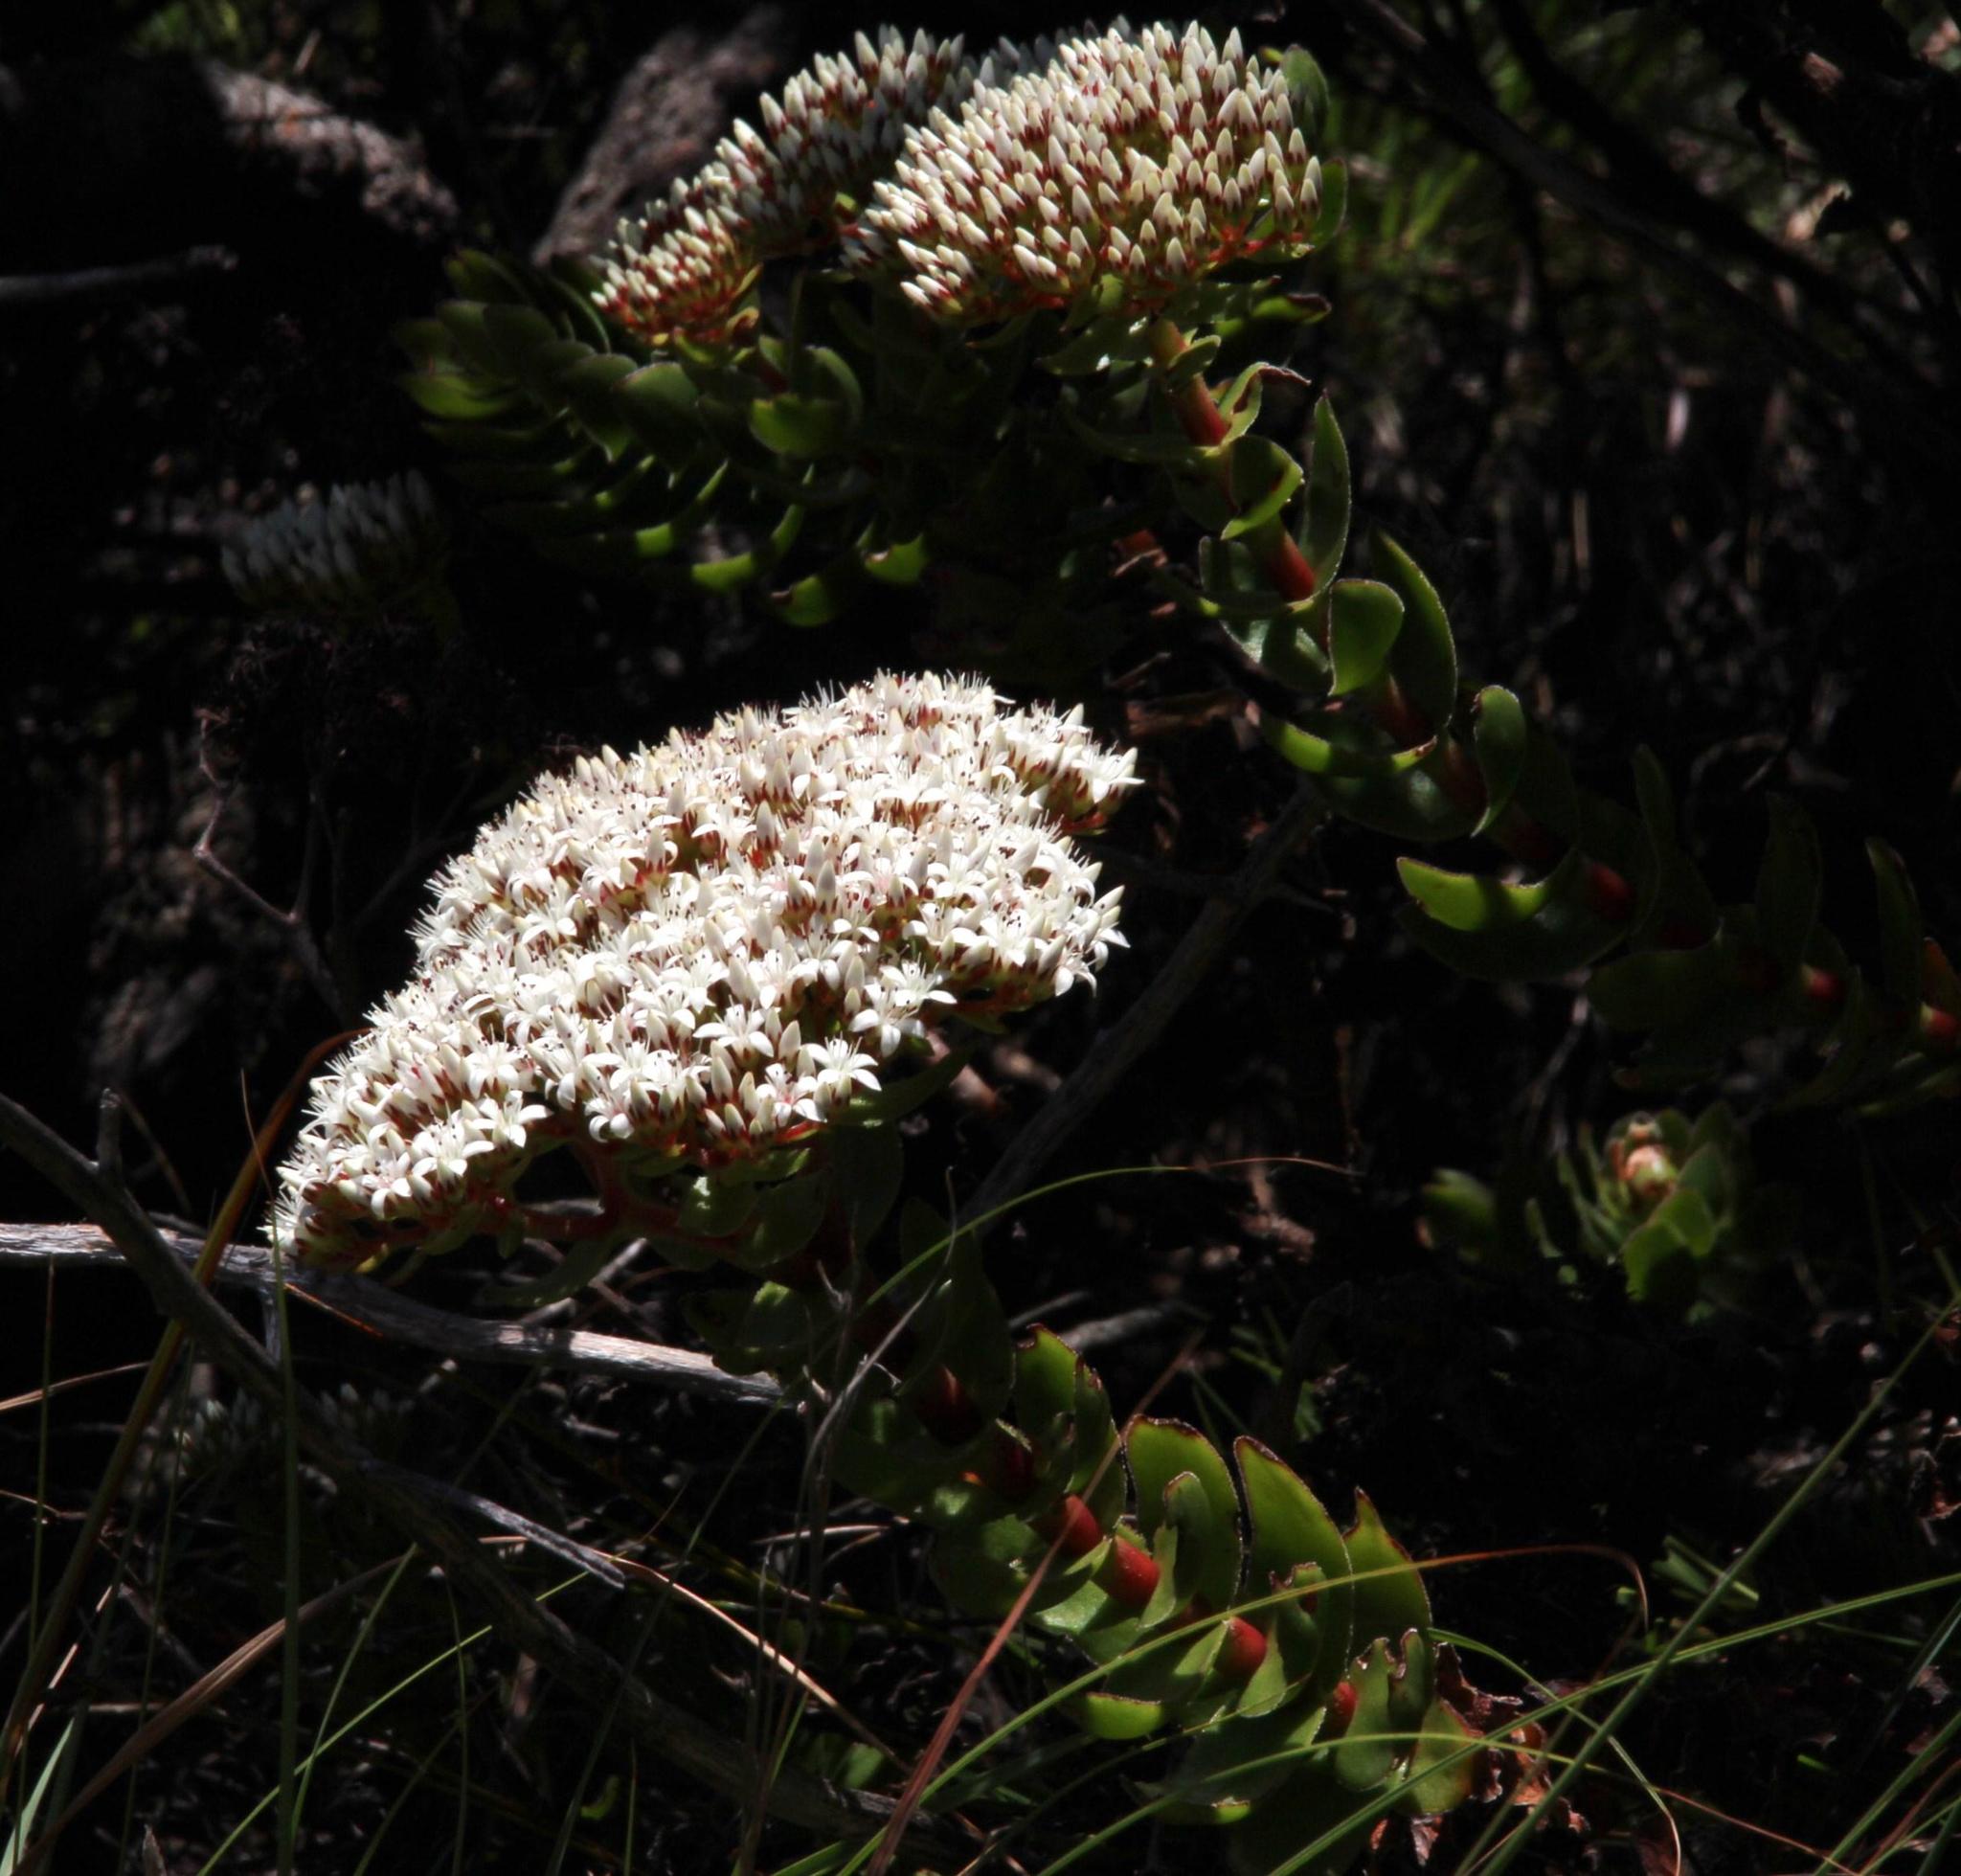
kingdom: Plantae
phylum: Tracheophyta
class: Magnoliopsida
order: Saxifragales
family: Crassulaceae
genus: Crassula
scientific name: Crassula undulata
